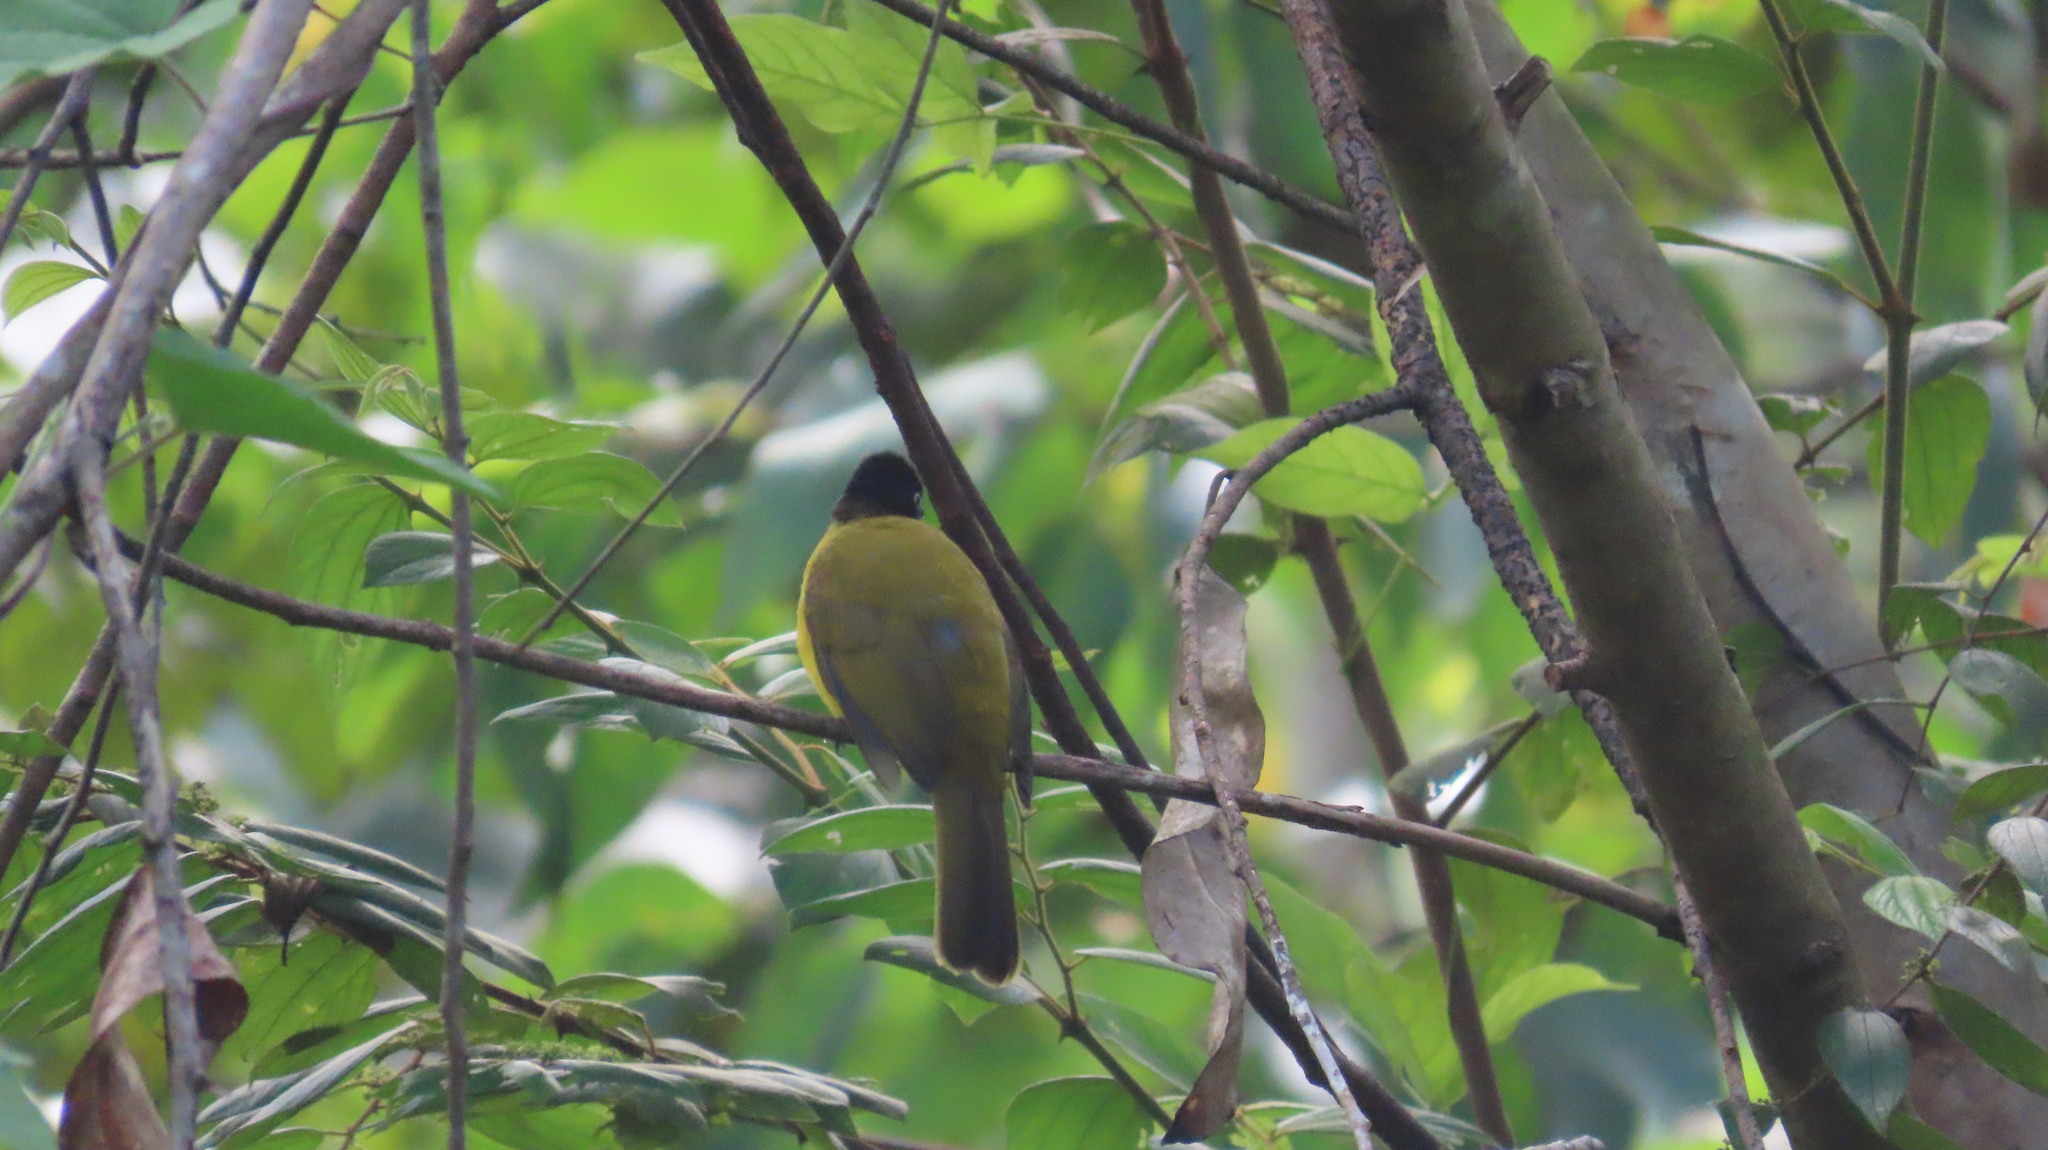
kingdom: Animalia
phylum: Chordata
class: Aves
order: Passeriformes
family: Pycnonotidae
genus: Pycnonotus
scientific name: Pycnonotus gularis
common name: Flame-throated bulbul
